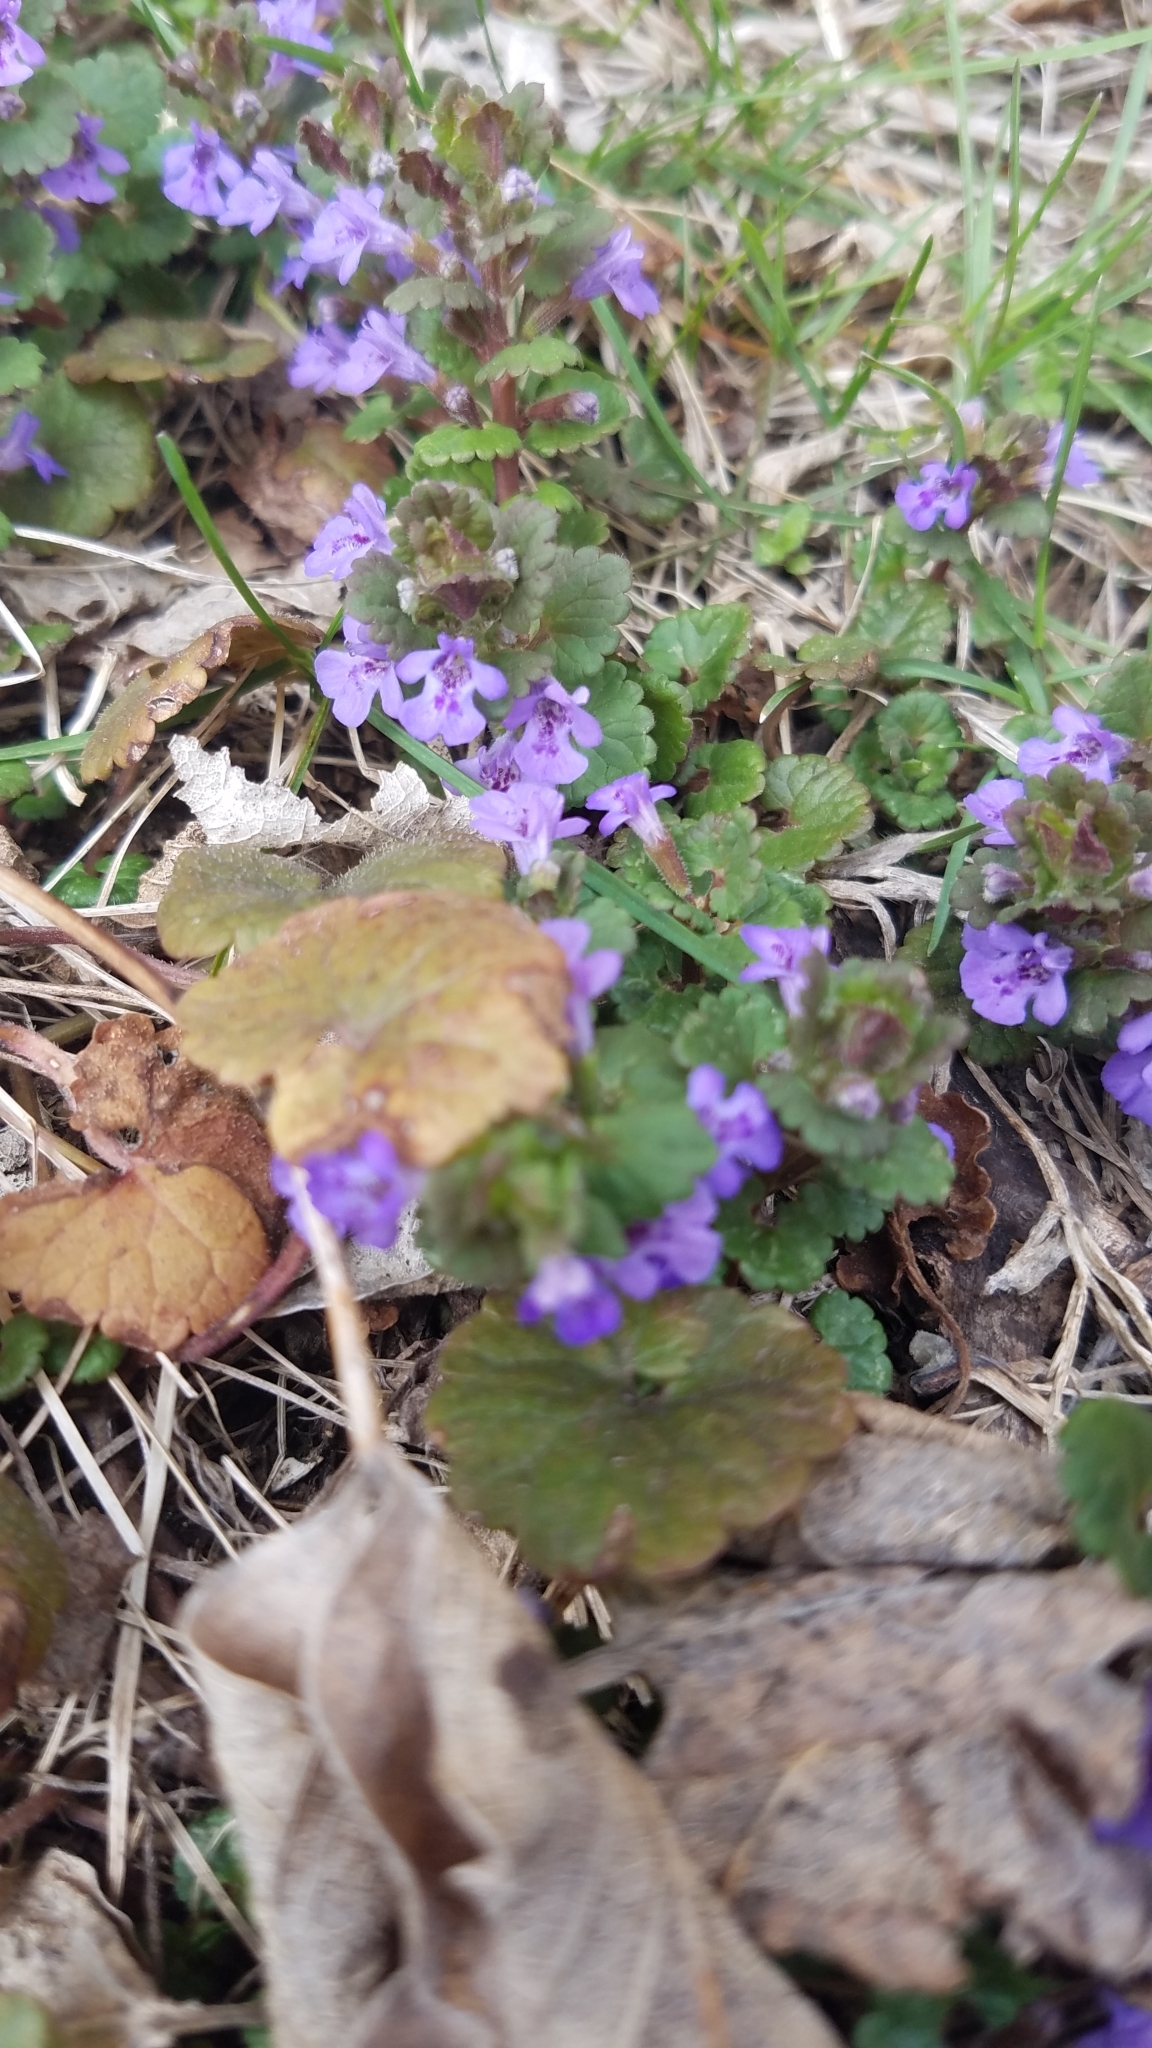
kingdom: Plantae
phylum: Tracheophyta
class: Magnoliopsida
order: Lamiales
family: Lamiaceae
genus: Glechoma
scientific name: Glechoma hederacea
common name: Ground ivy
